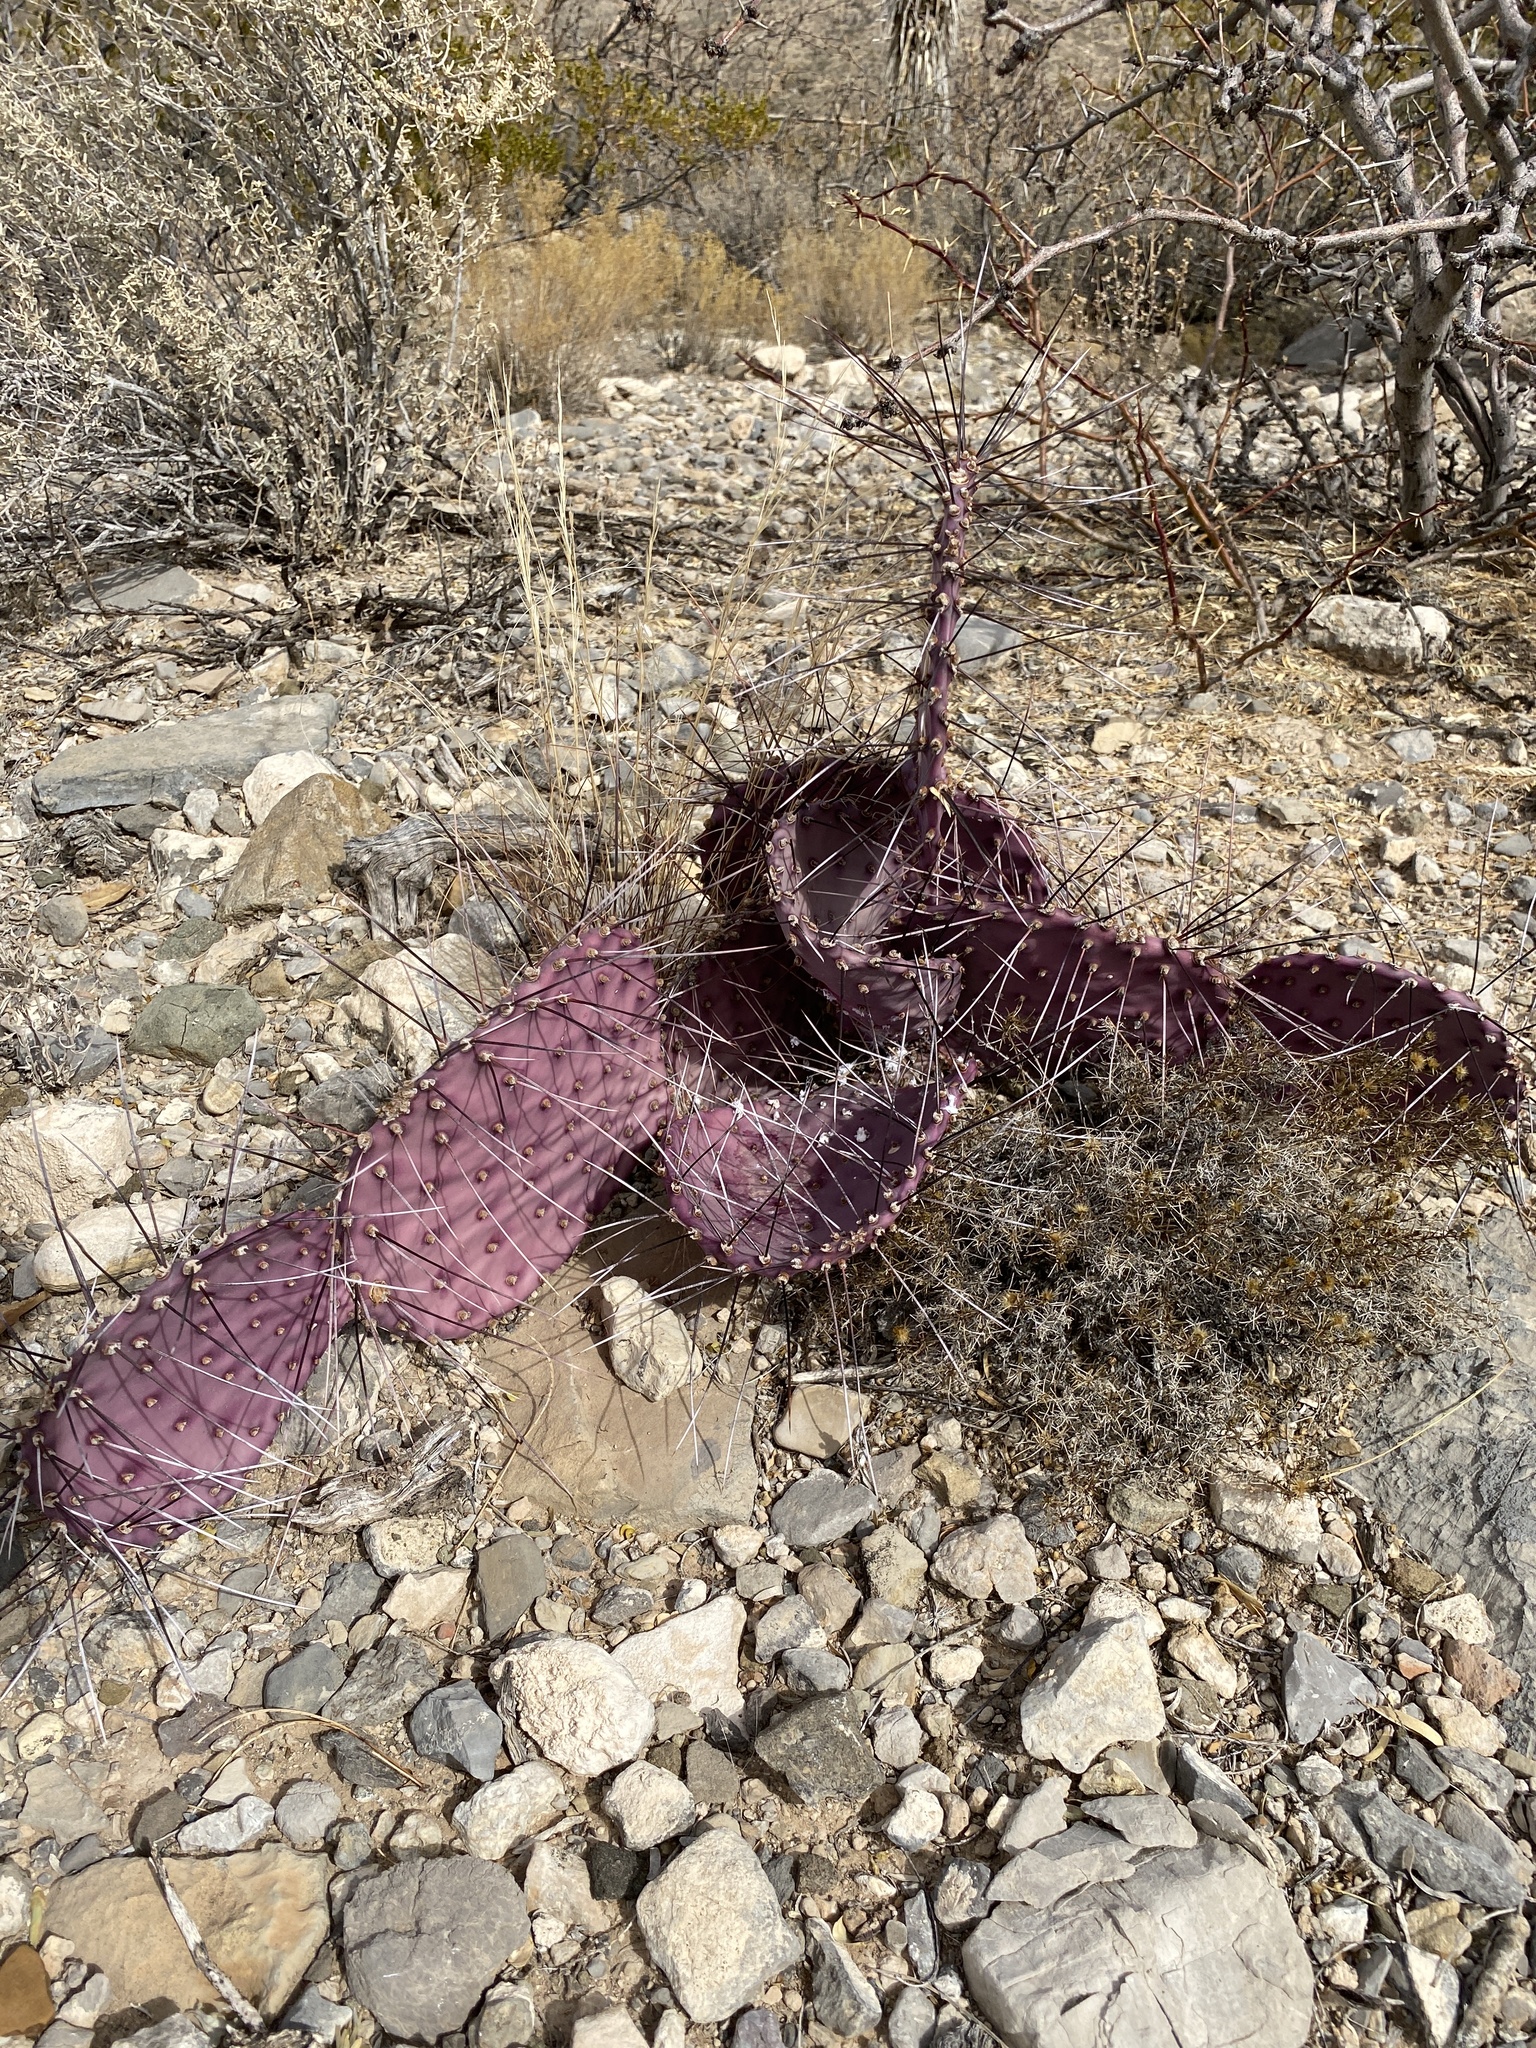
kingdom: Plantae
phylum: Tracheophyta
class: Magnoliopsida
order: Caryophyllales
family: Cactaceae
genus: Opuntia
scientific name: Opuntia macrocentra
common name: Purple prickly-pear
